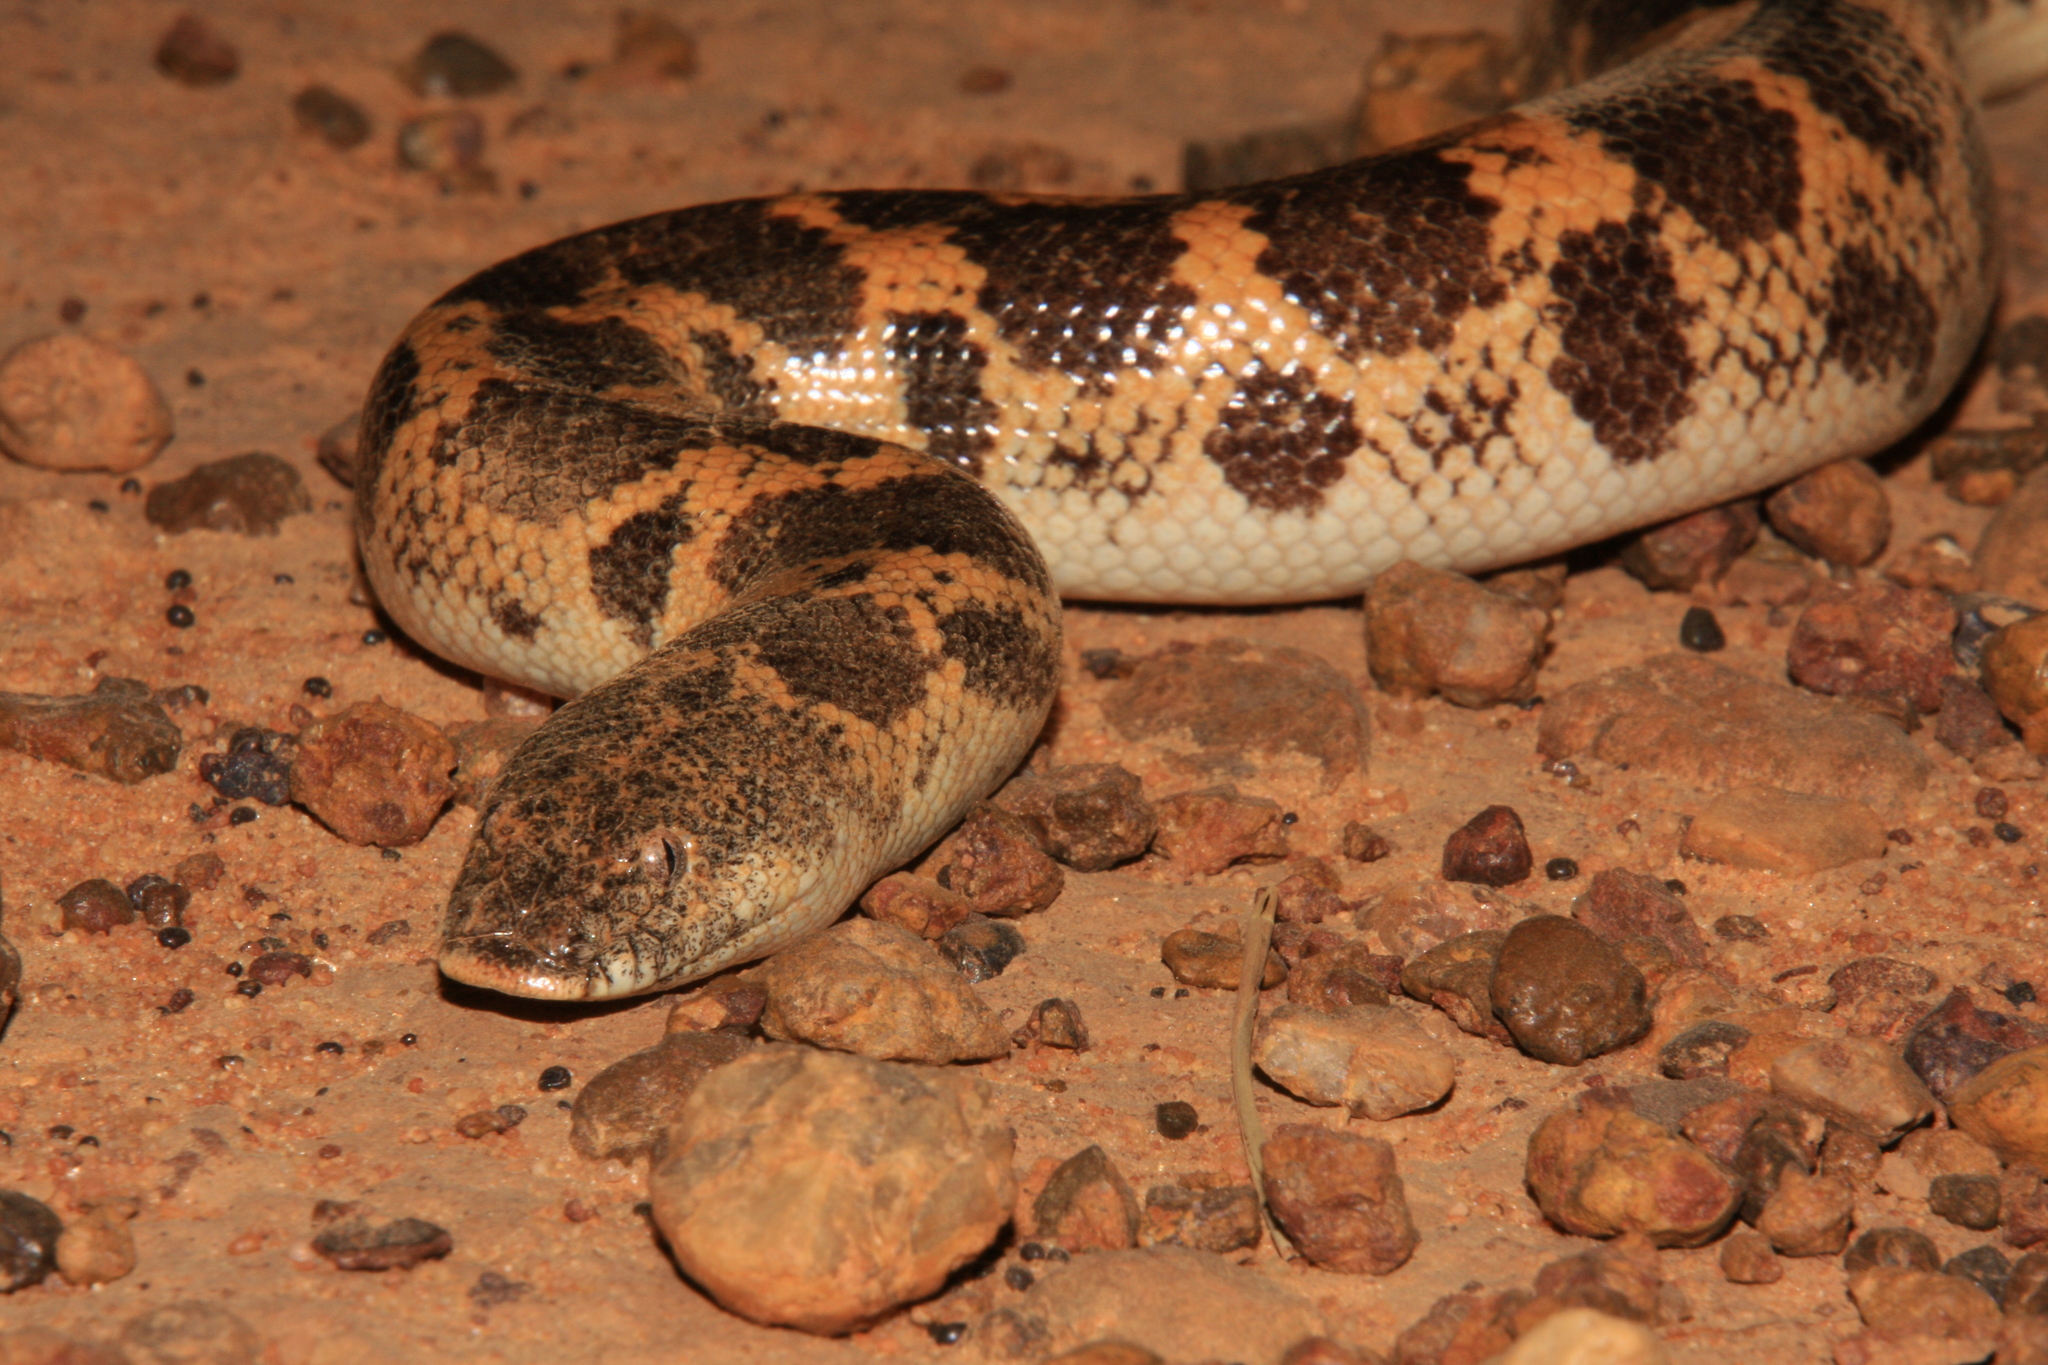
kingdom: Animalia
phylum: Chordata
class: Squamata
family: Boidae
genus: Eryx
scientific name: Eryx muelleri
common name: Müller’s sand boa
